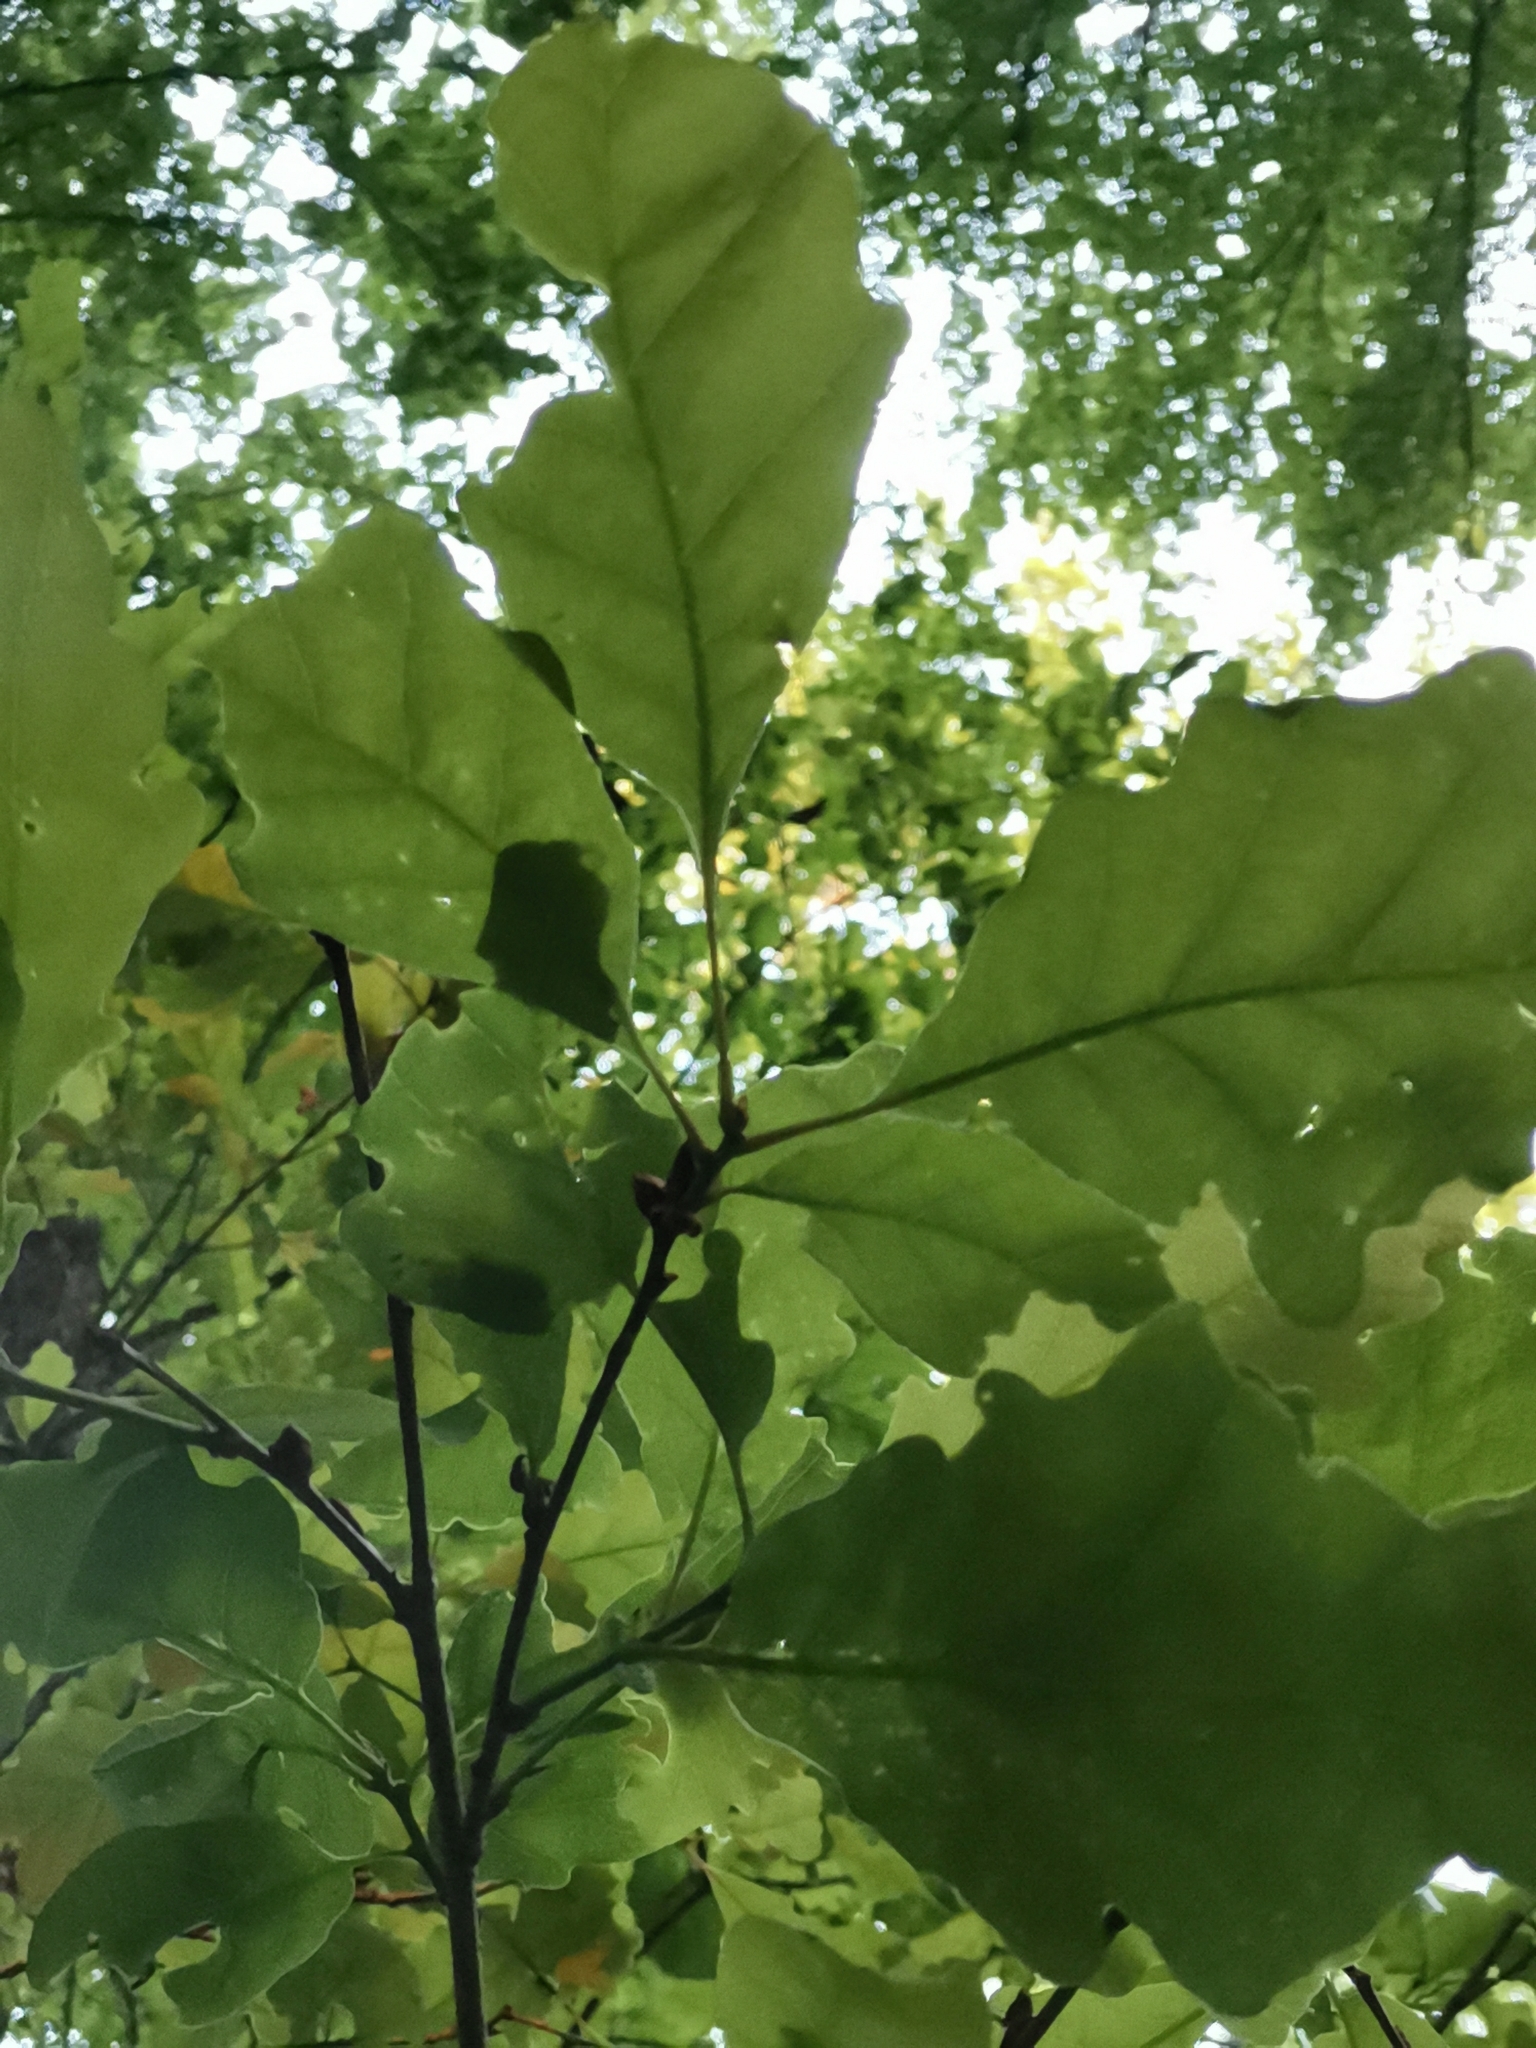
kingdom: Plantae
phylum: Tracheophyta
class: Magnoliopsida
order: Fagales
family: Fagaceae
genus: Quercus
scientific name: Quercus petraea
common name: Sessile oak
